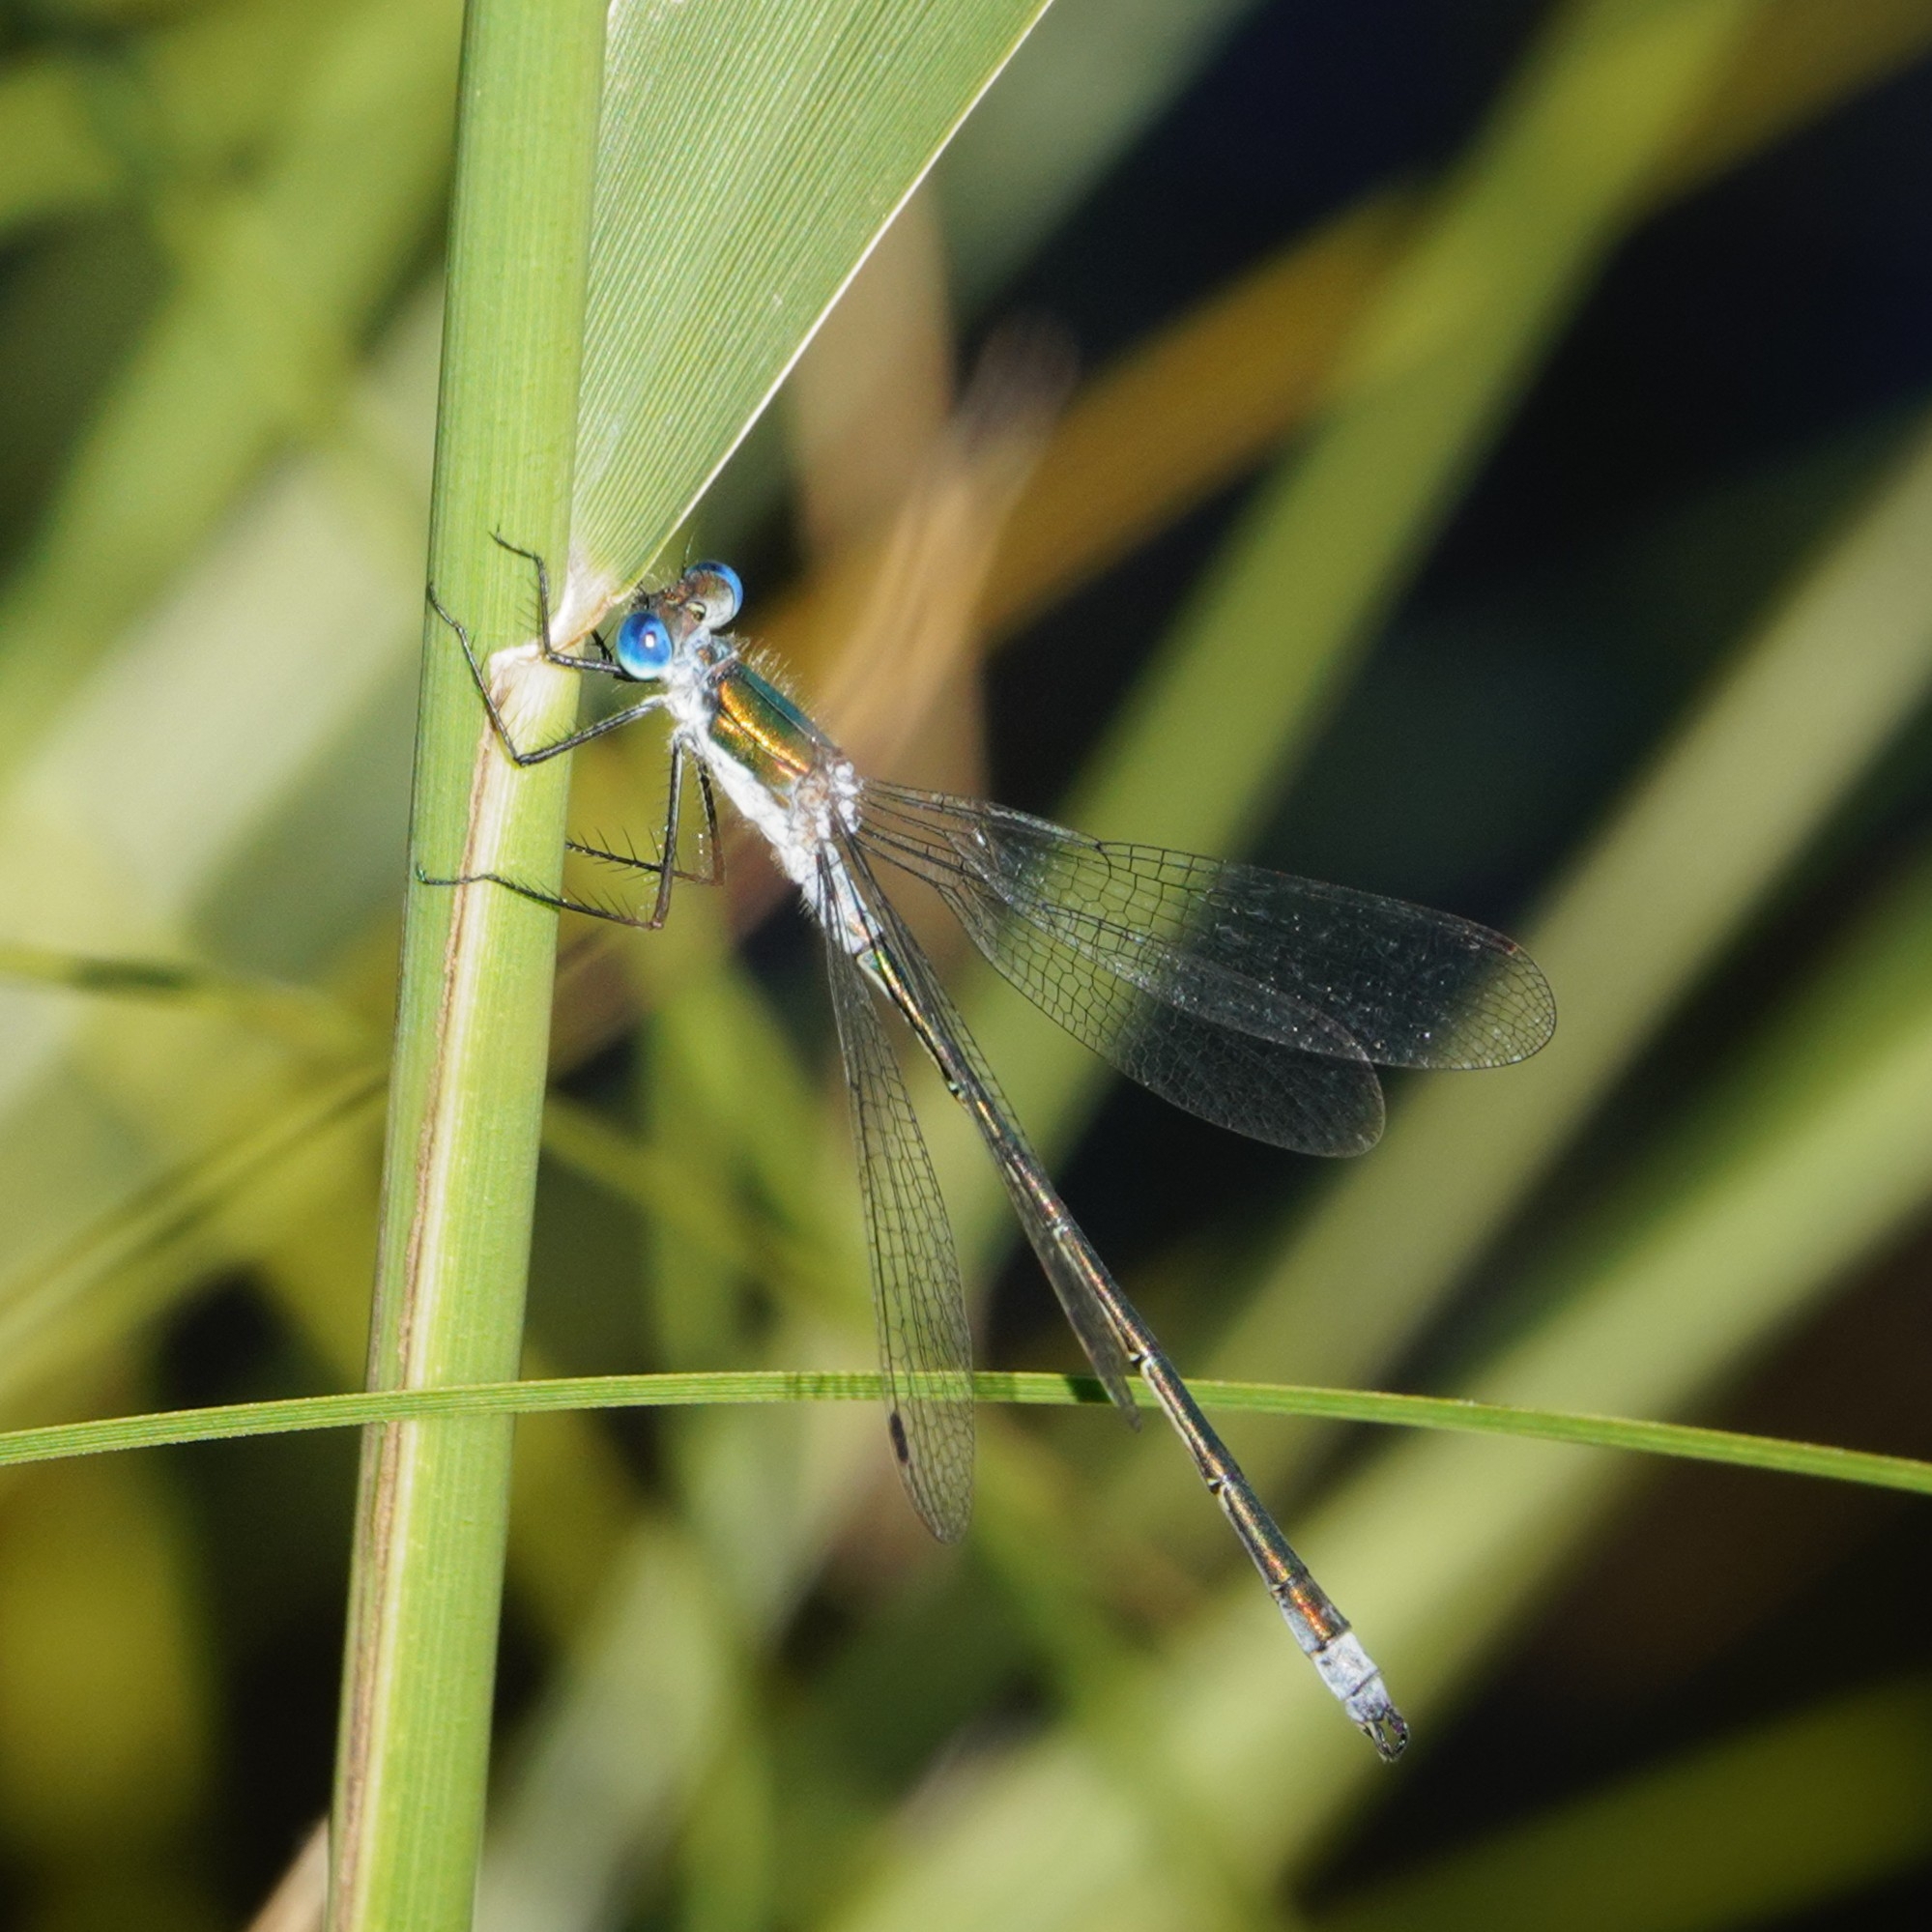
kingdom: Animalia
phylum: Arthropoda
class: Insecta
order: Odonata
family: Lestidae
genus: Lestes
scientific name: Lestes dryas
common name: Scarce emerald damselfly
